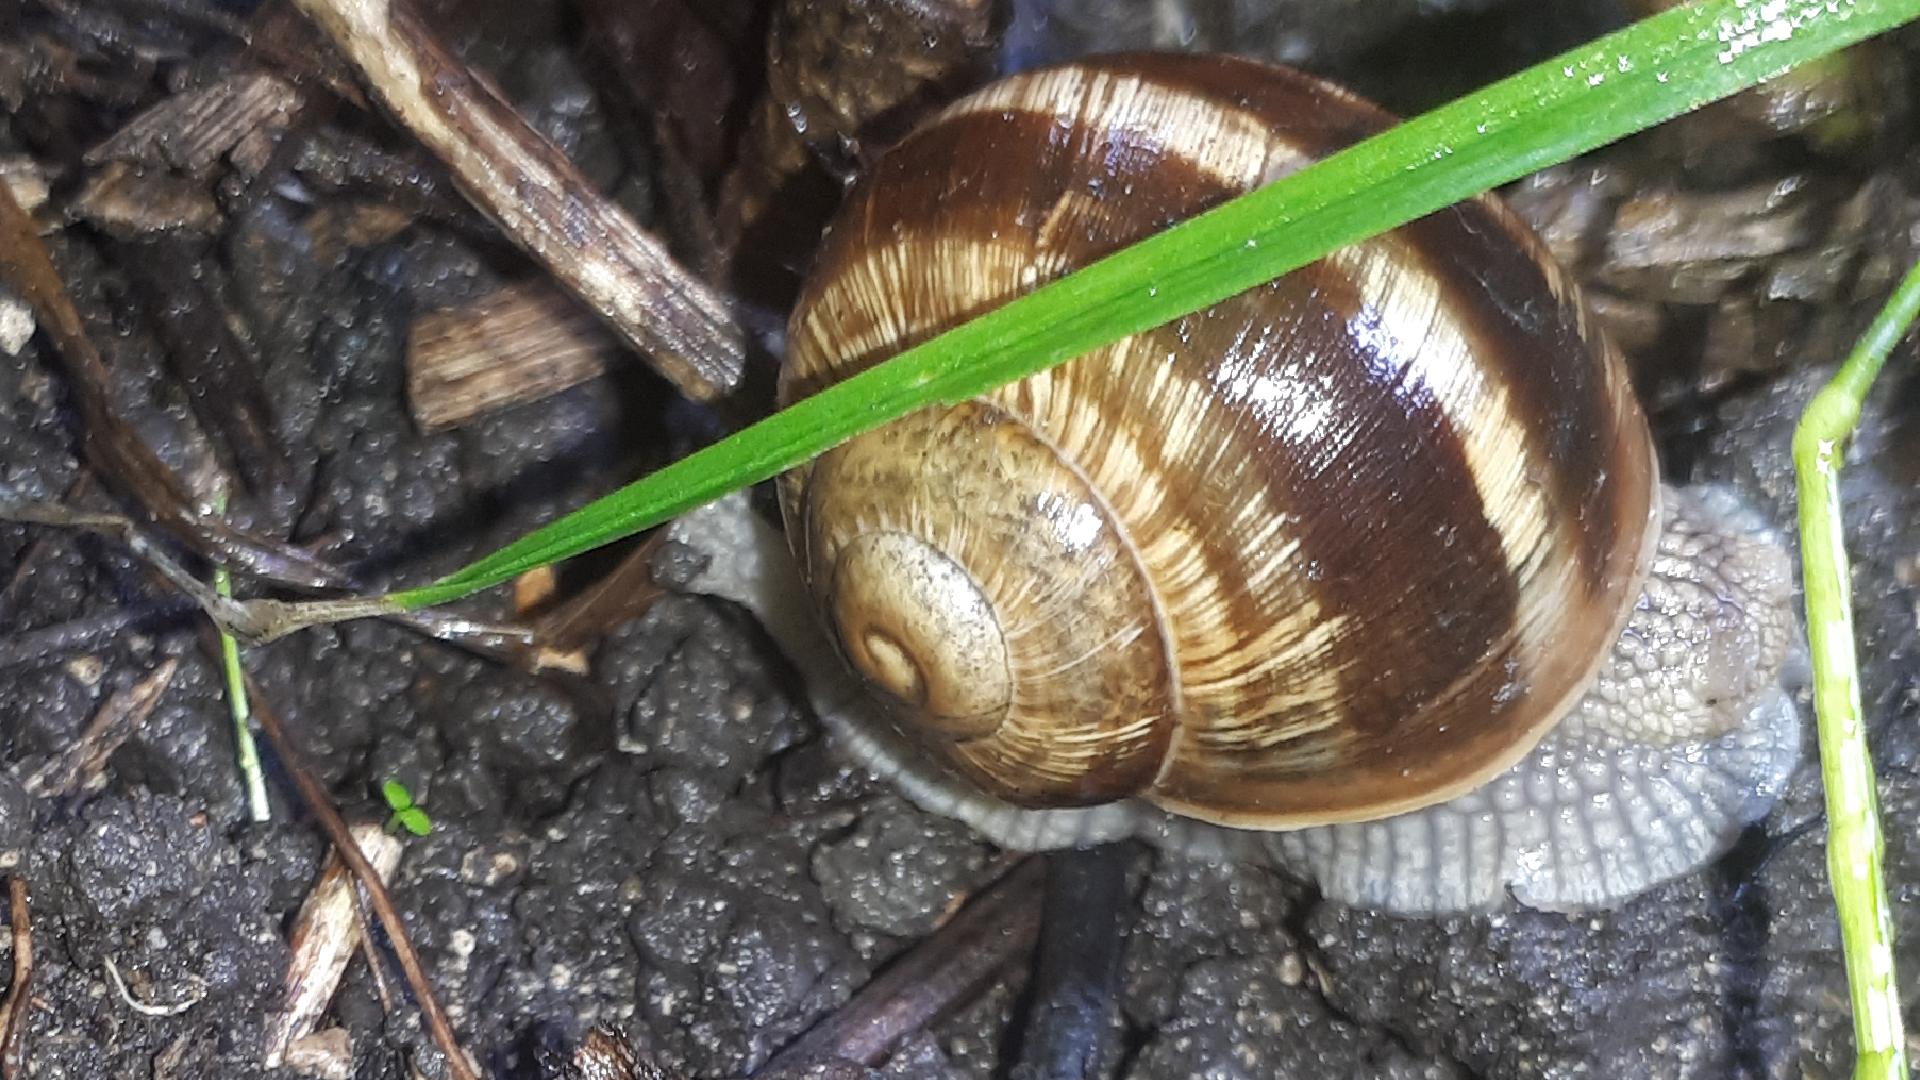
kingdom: Animalia
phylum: Mollusca
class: Gastropoda
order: Stylommatophora
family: Helicidae
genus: Helix
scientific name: Helix pomatia
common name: Roman snail
